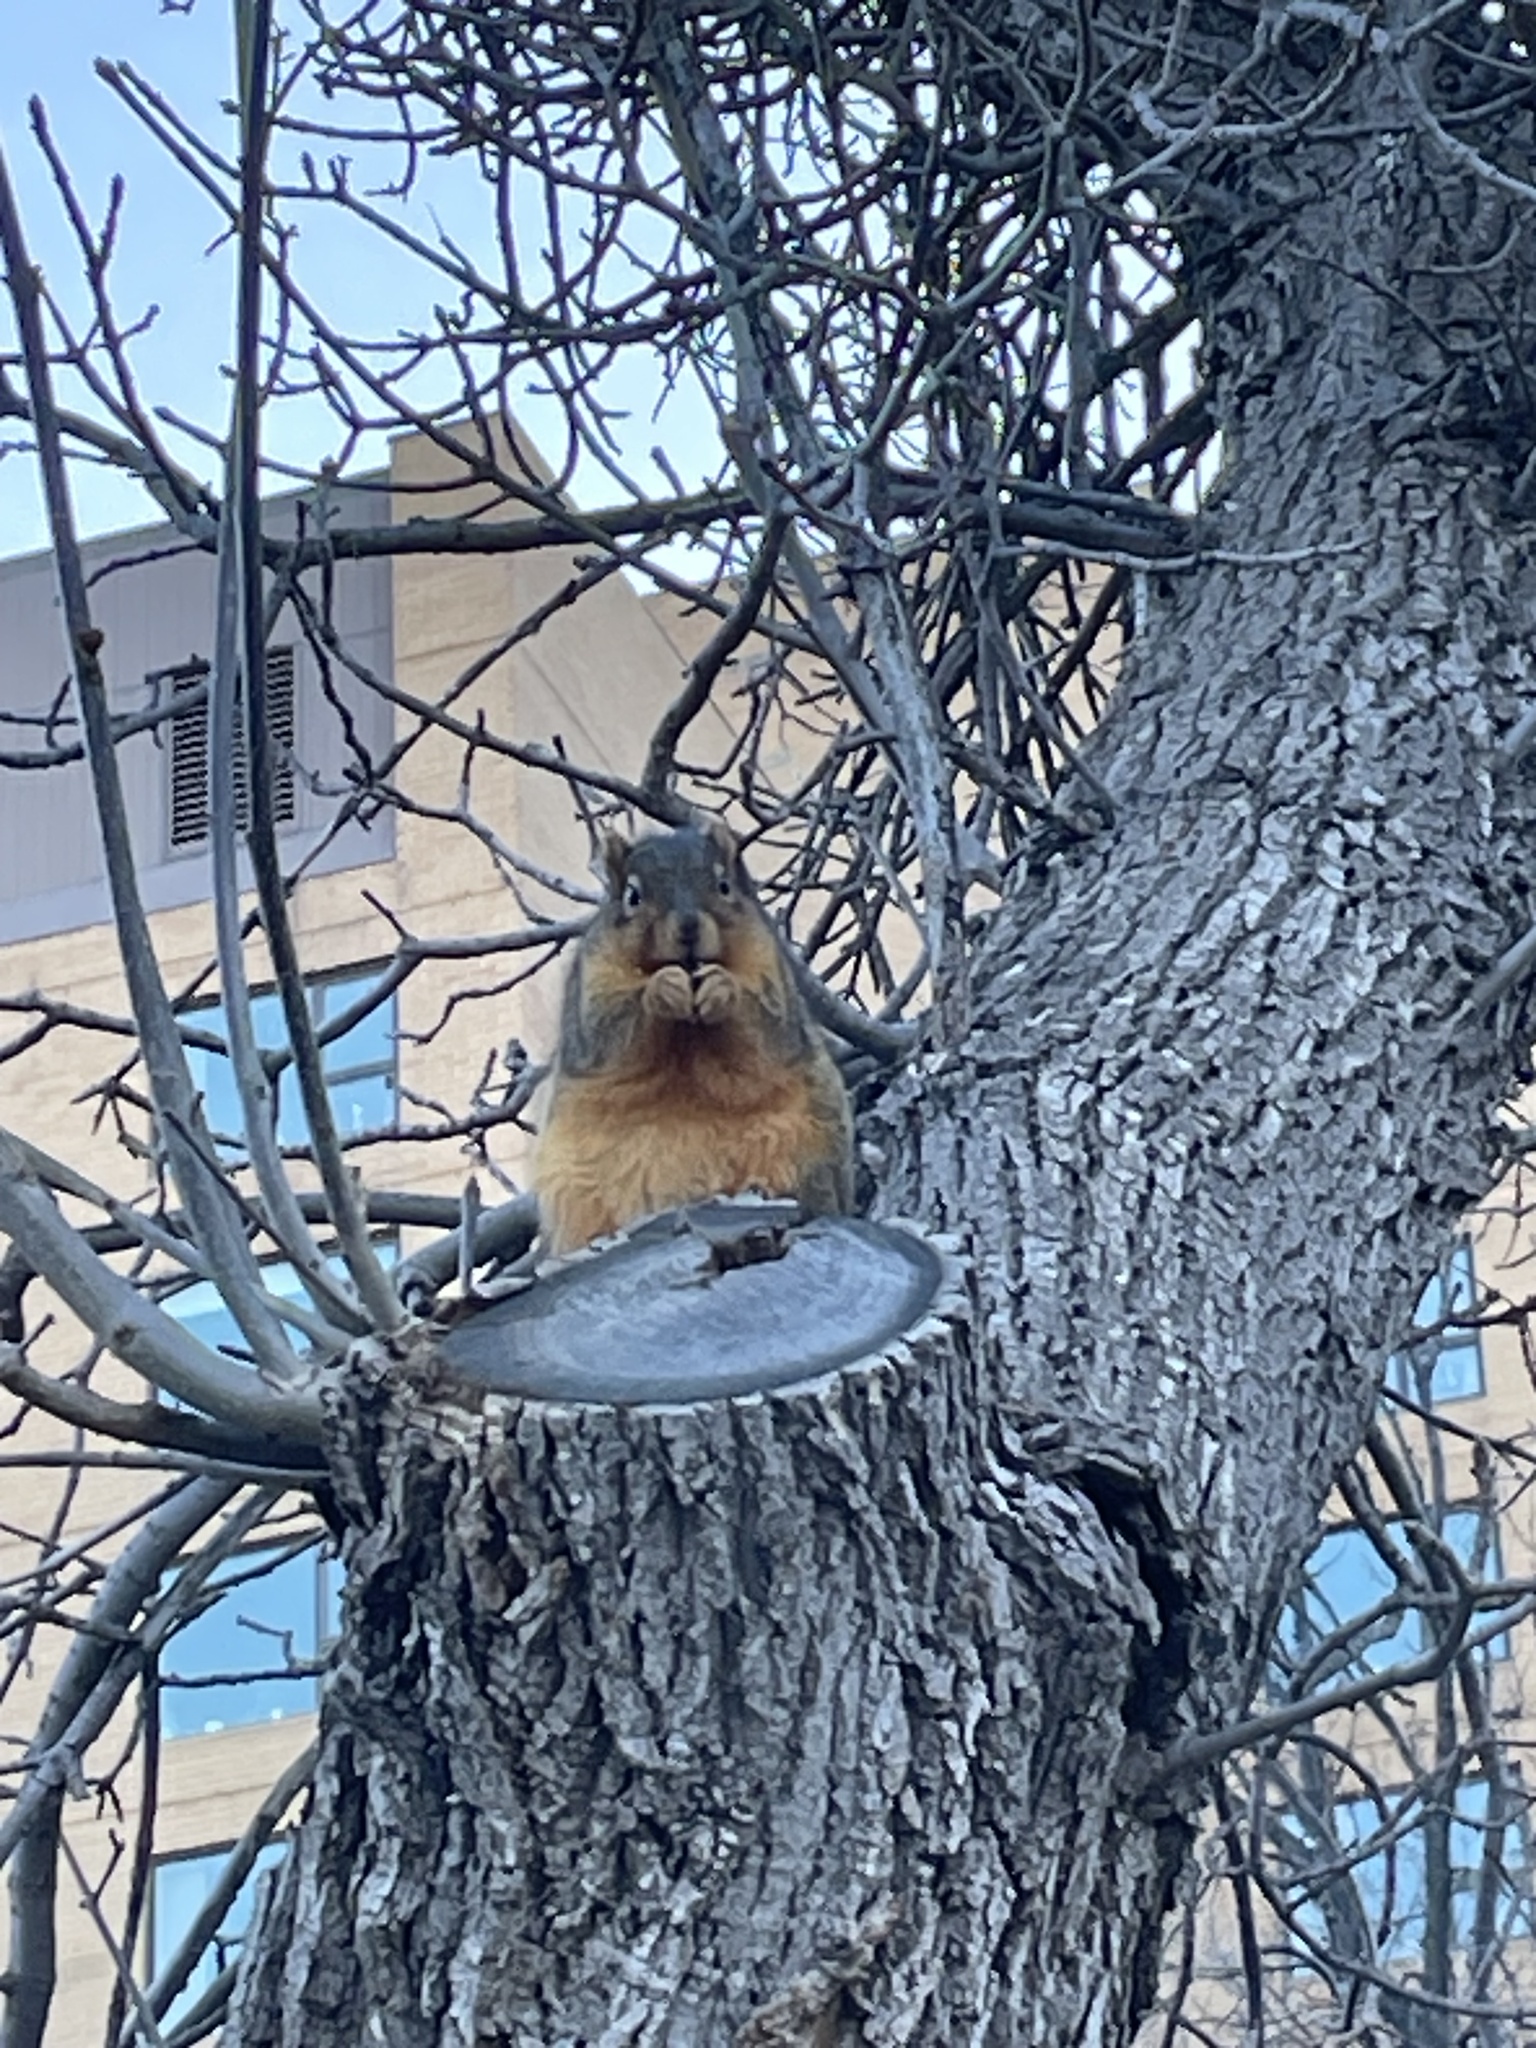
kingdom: Animalia
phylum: Chordata
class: Mammalia
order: Rodentia
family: Sciuridae
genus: Sciurus
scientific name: Sciurus niger
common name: Fox squirrel
